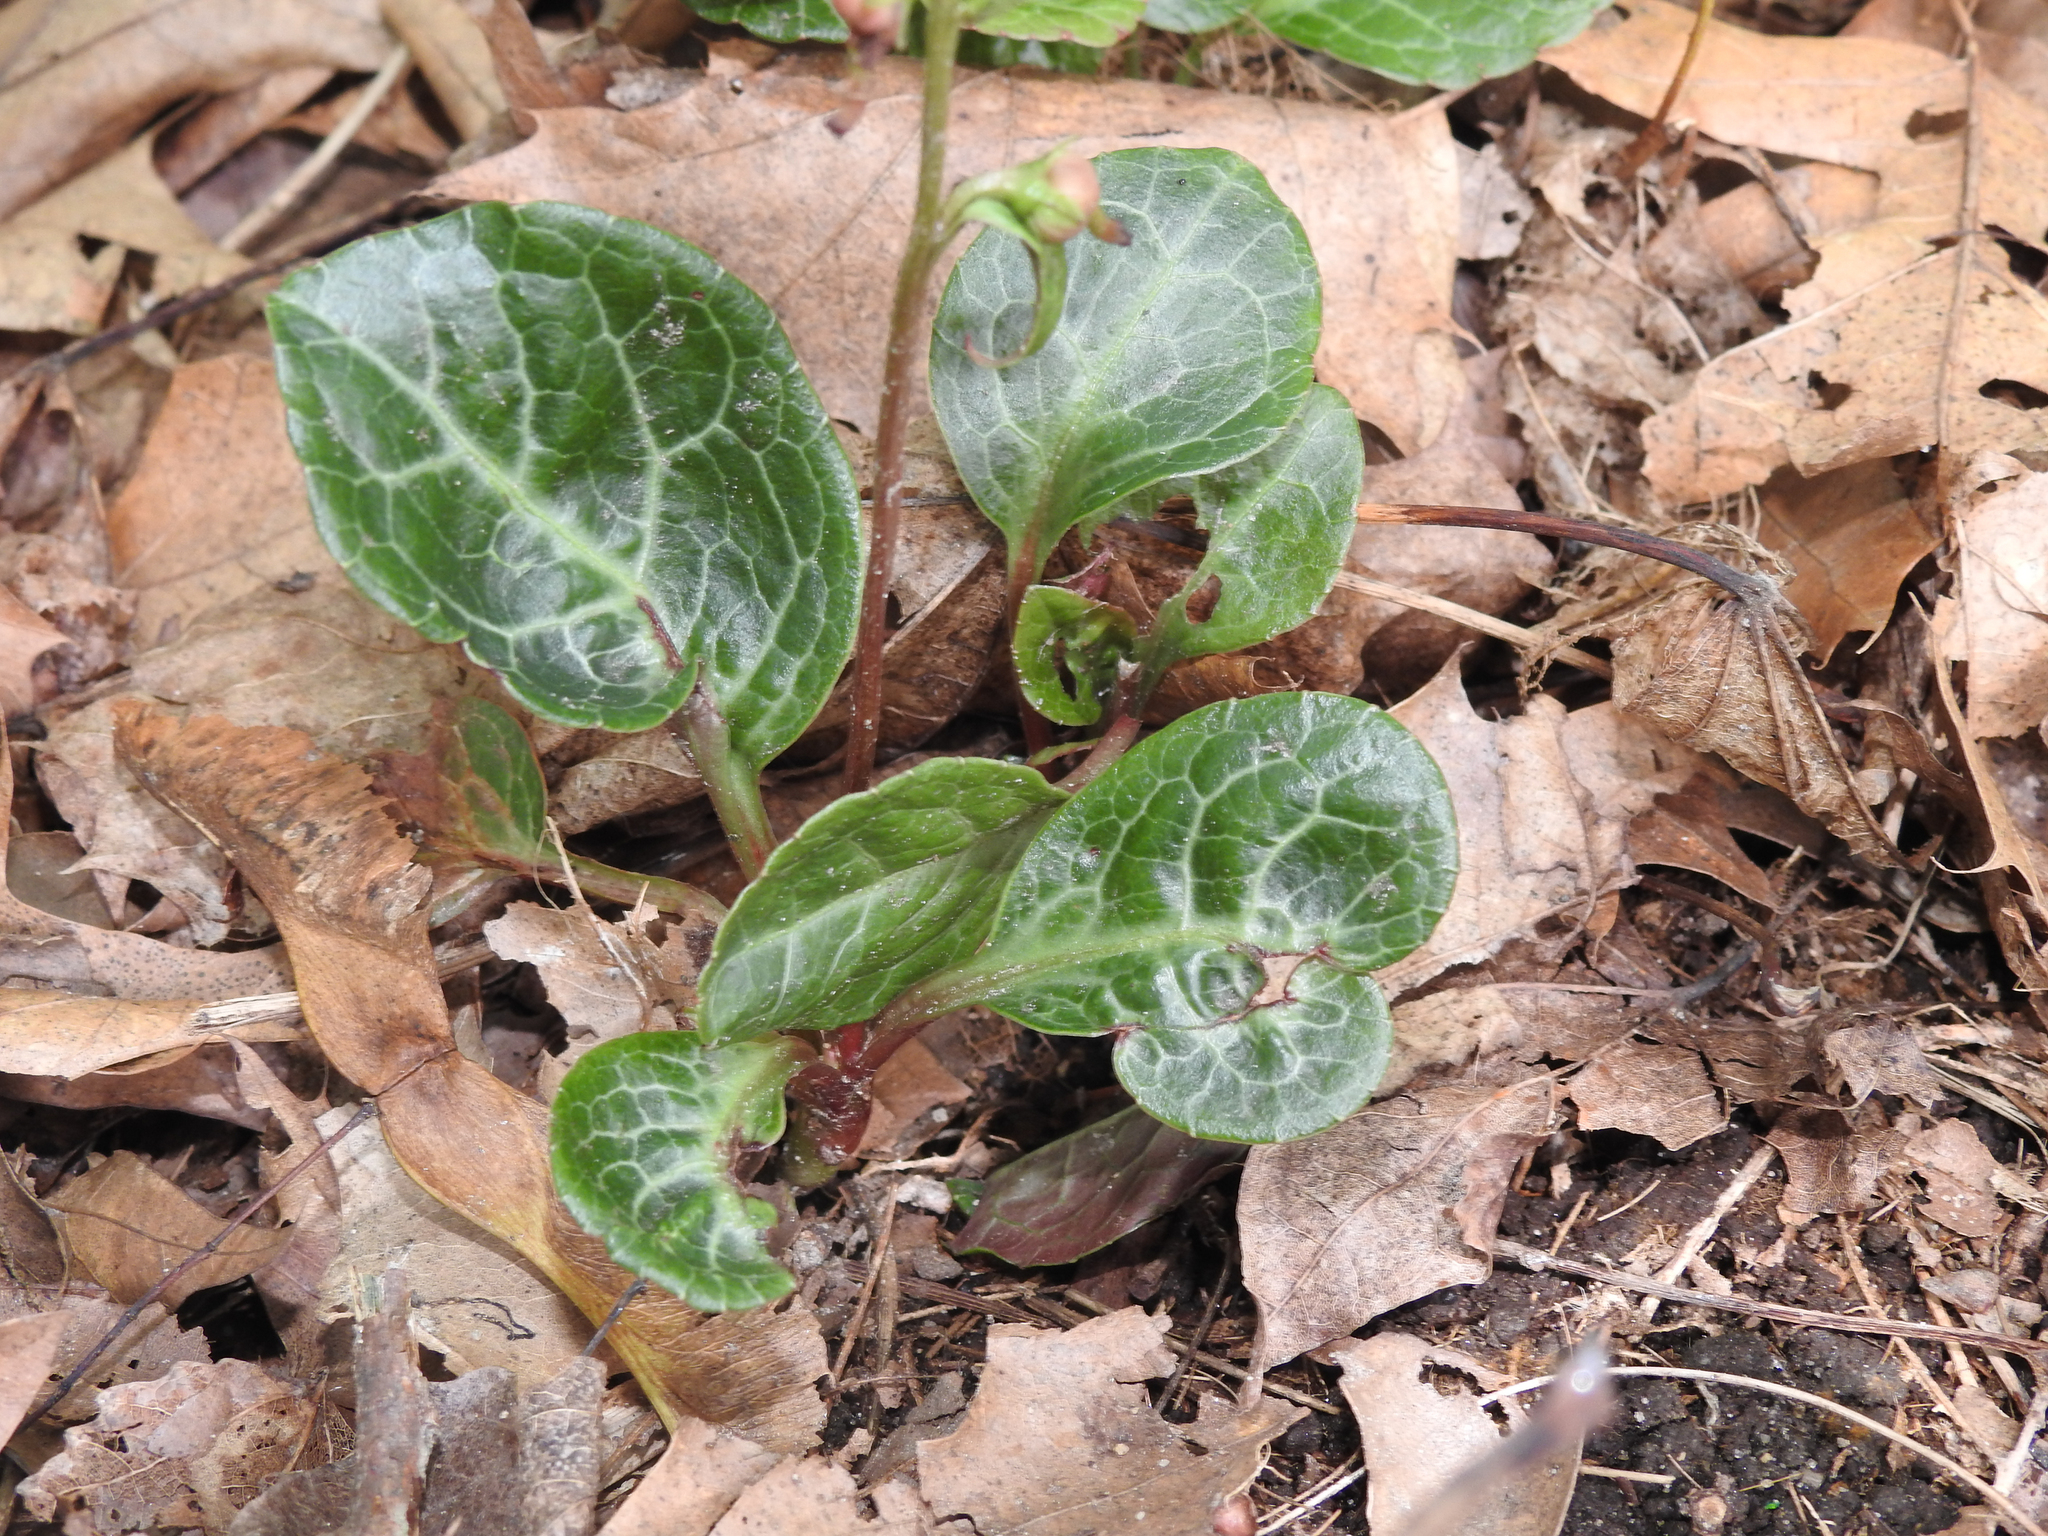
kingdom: Plantae
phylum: Tracheophyta
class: Magnoliopsida
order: Ericales
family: Ericaceae
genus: Pyrola
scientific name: Pyrola americana
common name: American wintergreen
